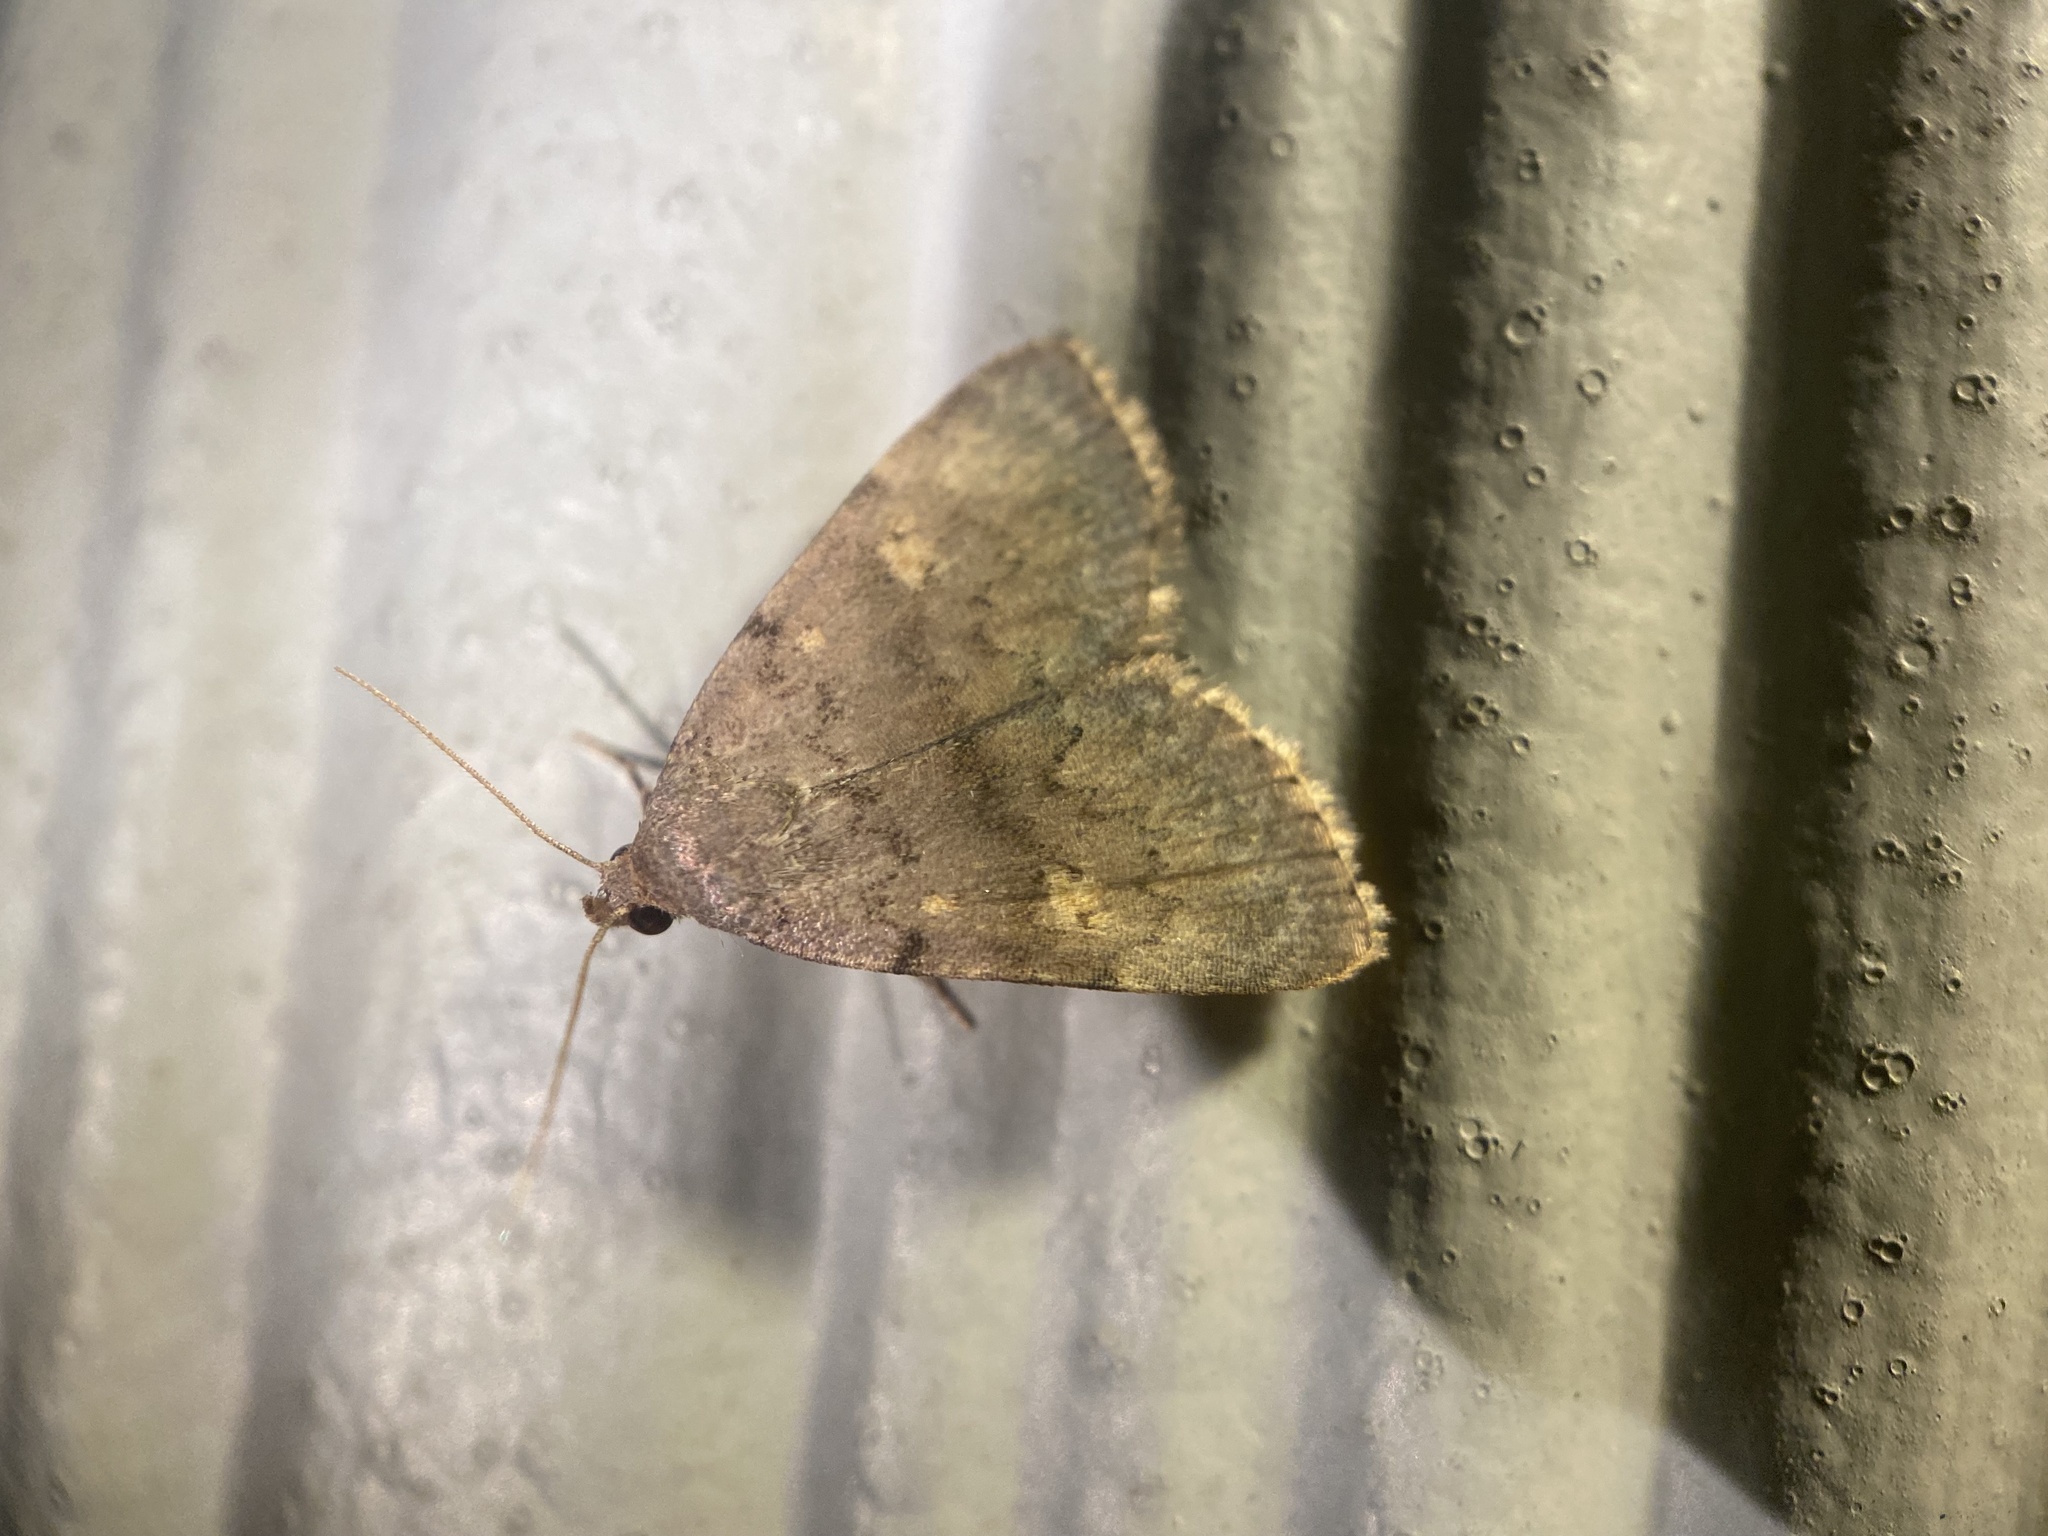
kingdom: Animalia
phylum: Arthropoda
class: Insecta
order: Lepidoptera
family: Erebidae
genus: Idia
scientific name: Idia aemula
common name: Common idia moth
